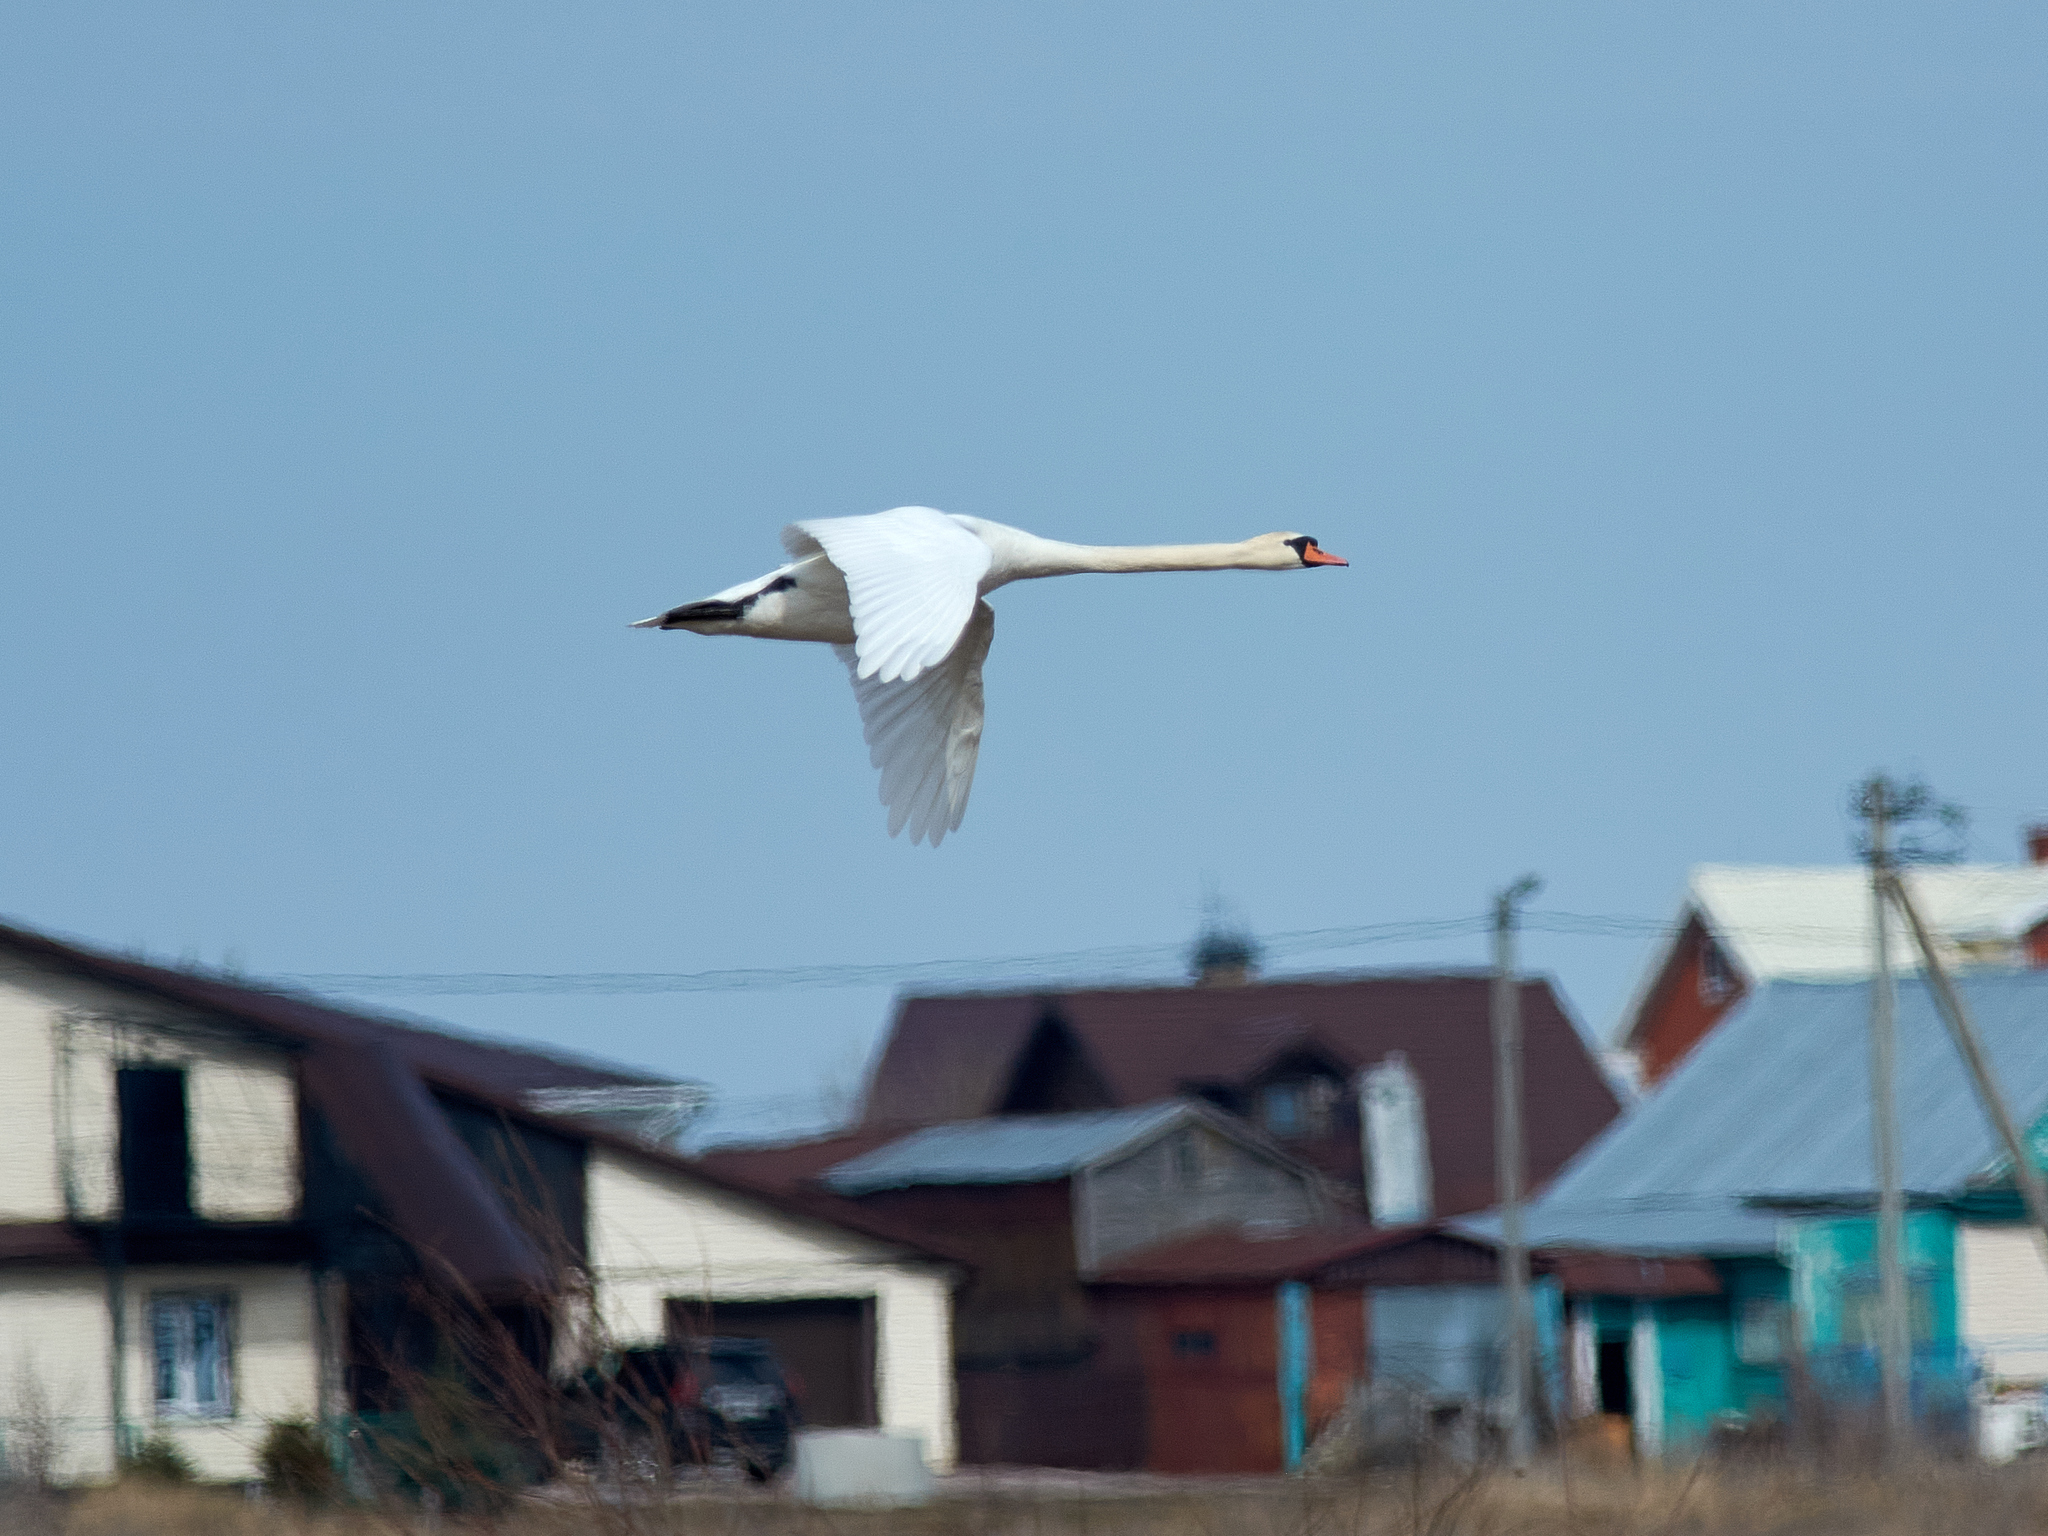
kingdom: Animalia
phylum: Chordata
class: Aves
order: Anseriformes
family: Anatidae
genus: Cygnus
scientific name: Cygnus olor
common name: Mute swan
